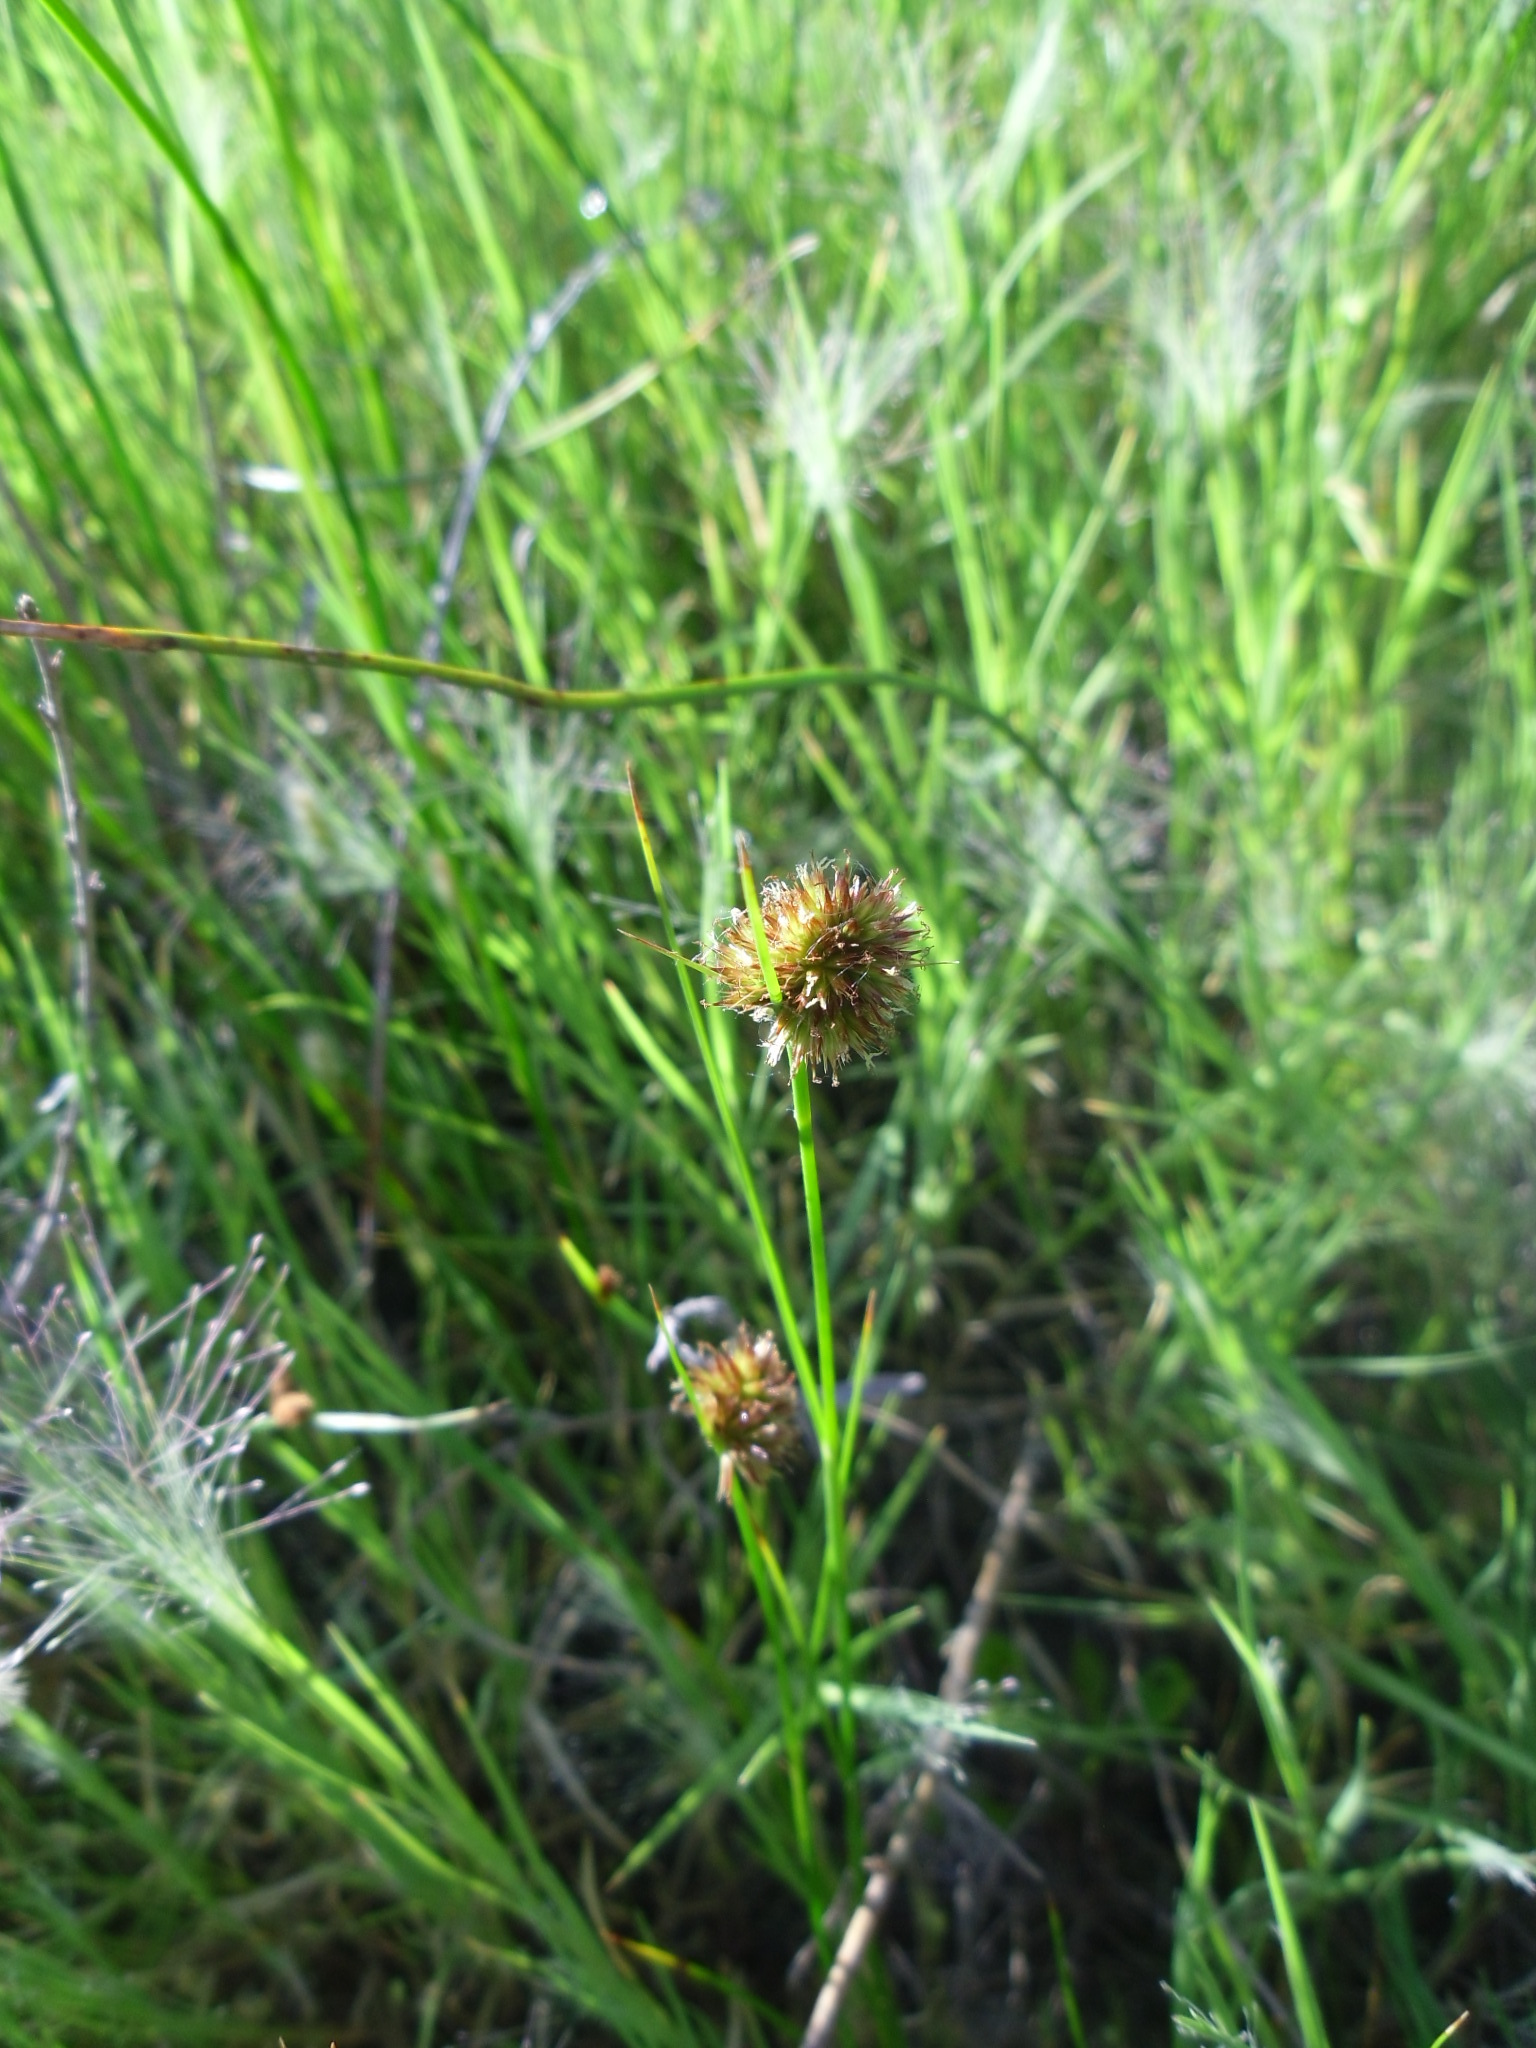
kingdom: Plantae
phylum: Tracheophyta
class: Liliopsida
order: Poales
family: Juncaceae
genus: Juncus
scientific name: Juncus torreyi
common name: Torrey's rush
